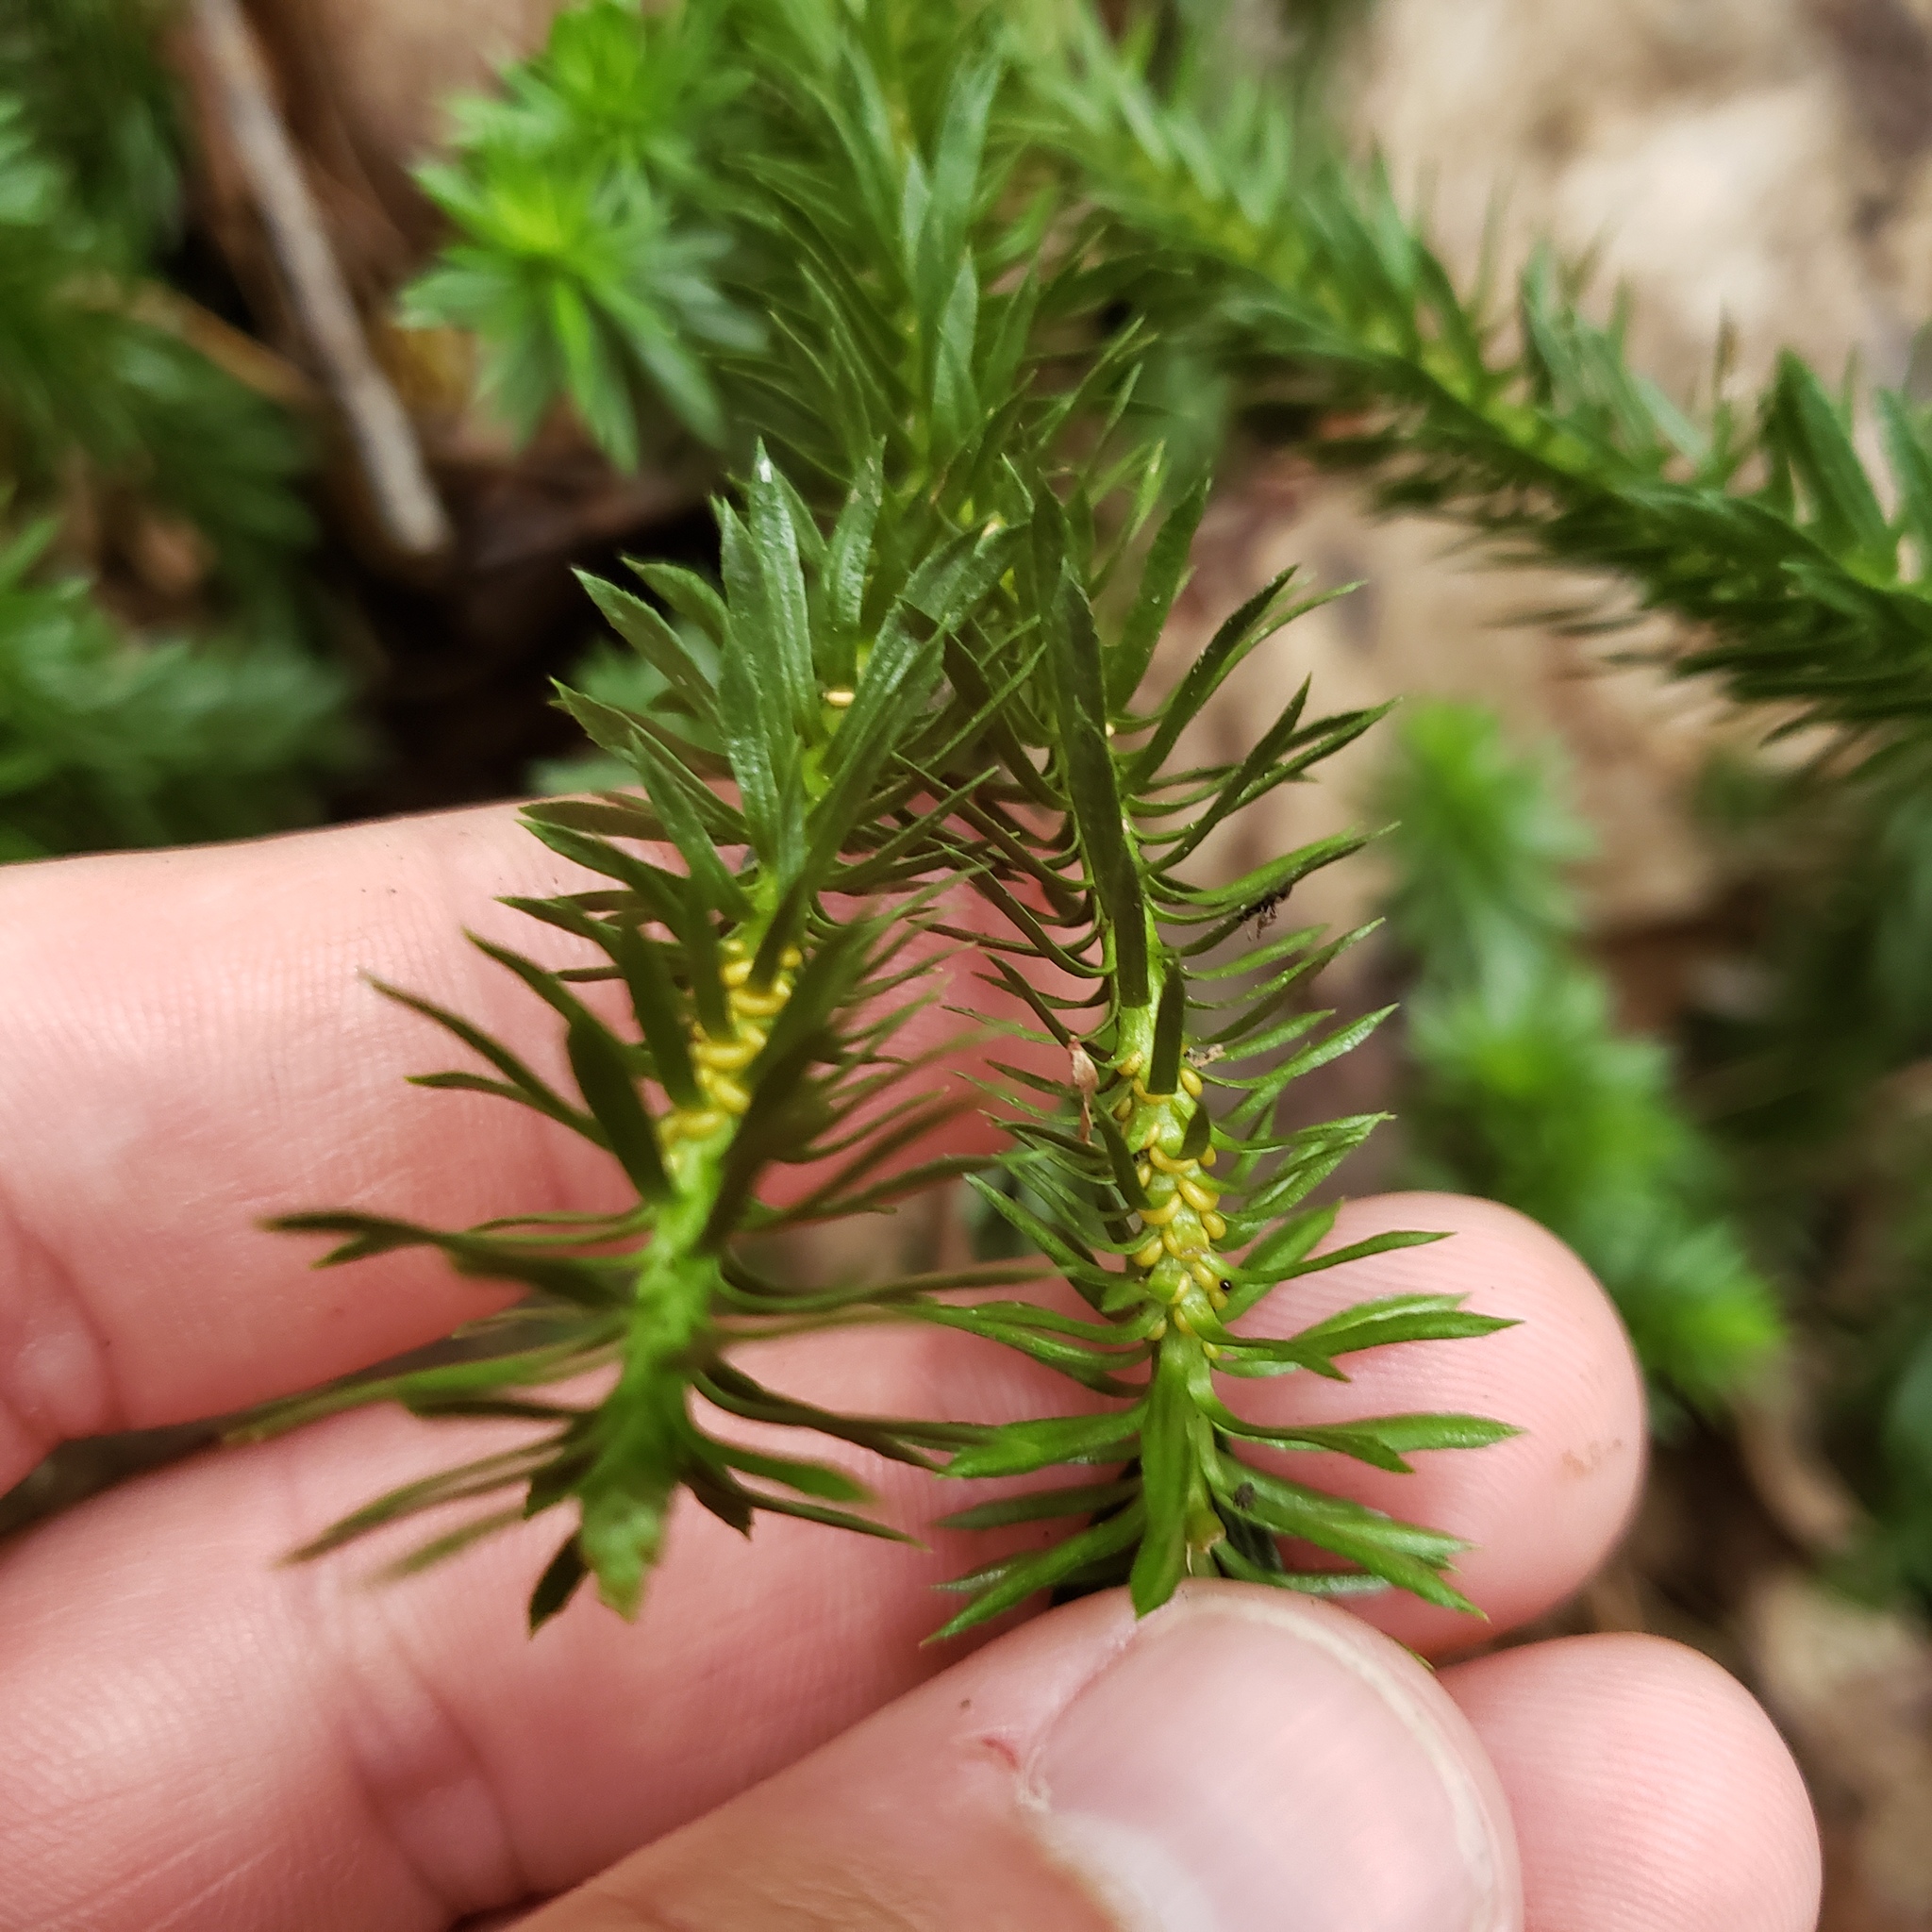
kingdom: Plantae
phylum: Tracheophyta
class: Lycopodiopsida
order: Lycopodiales
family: Lycopodiaceae
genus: Huperzia
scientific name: Huperzia lucidula
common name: Shining clubmoss
